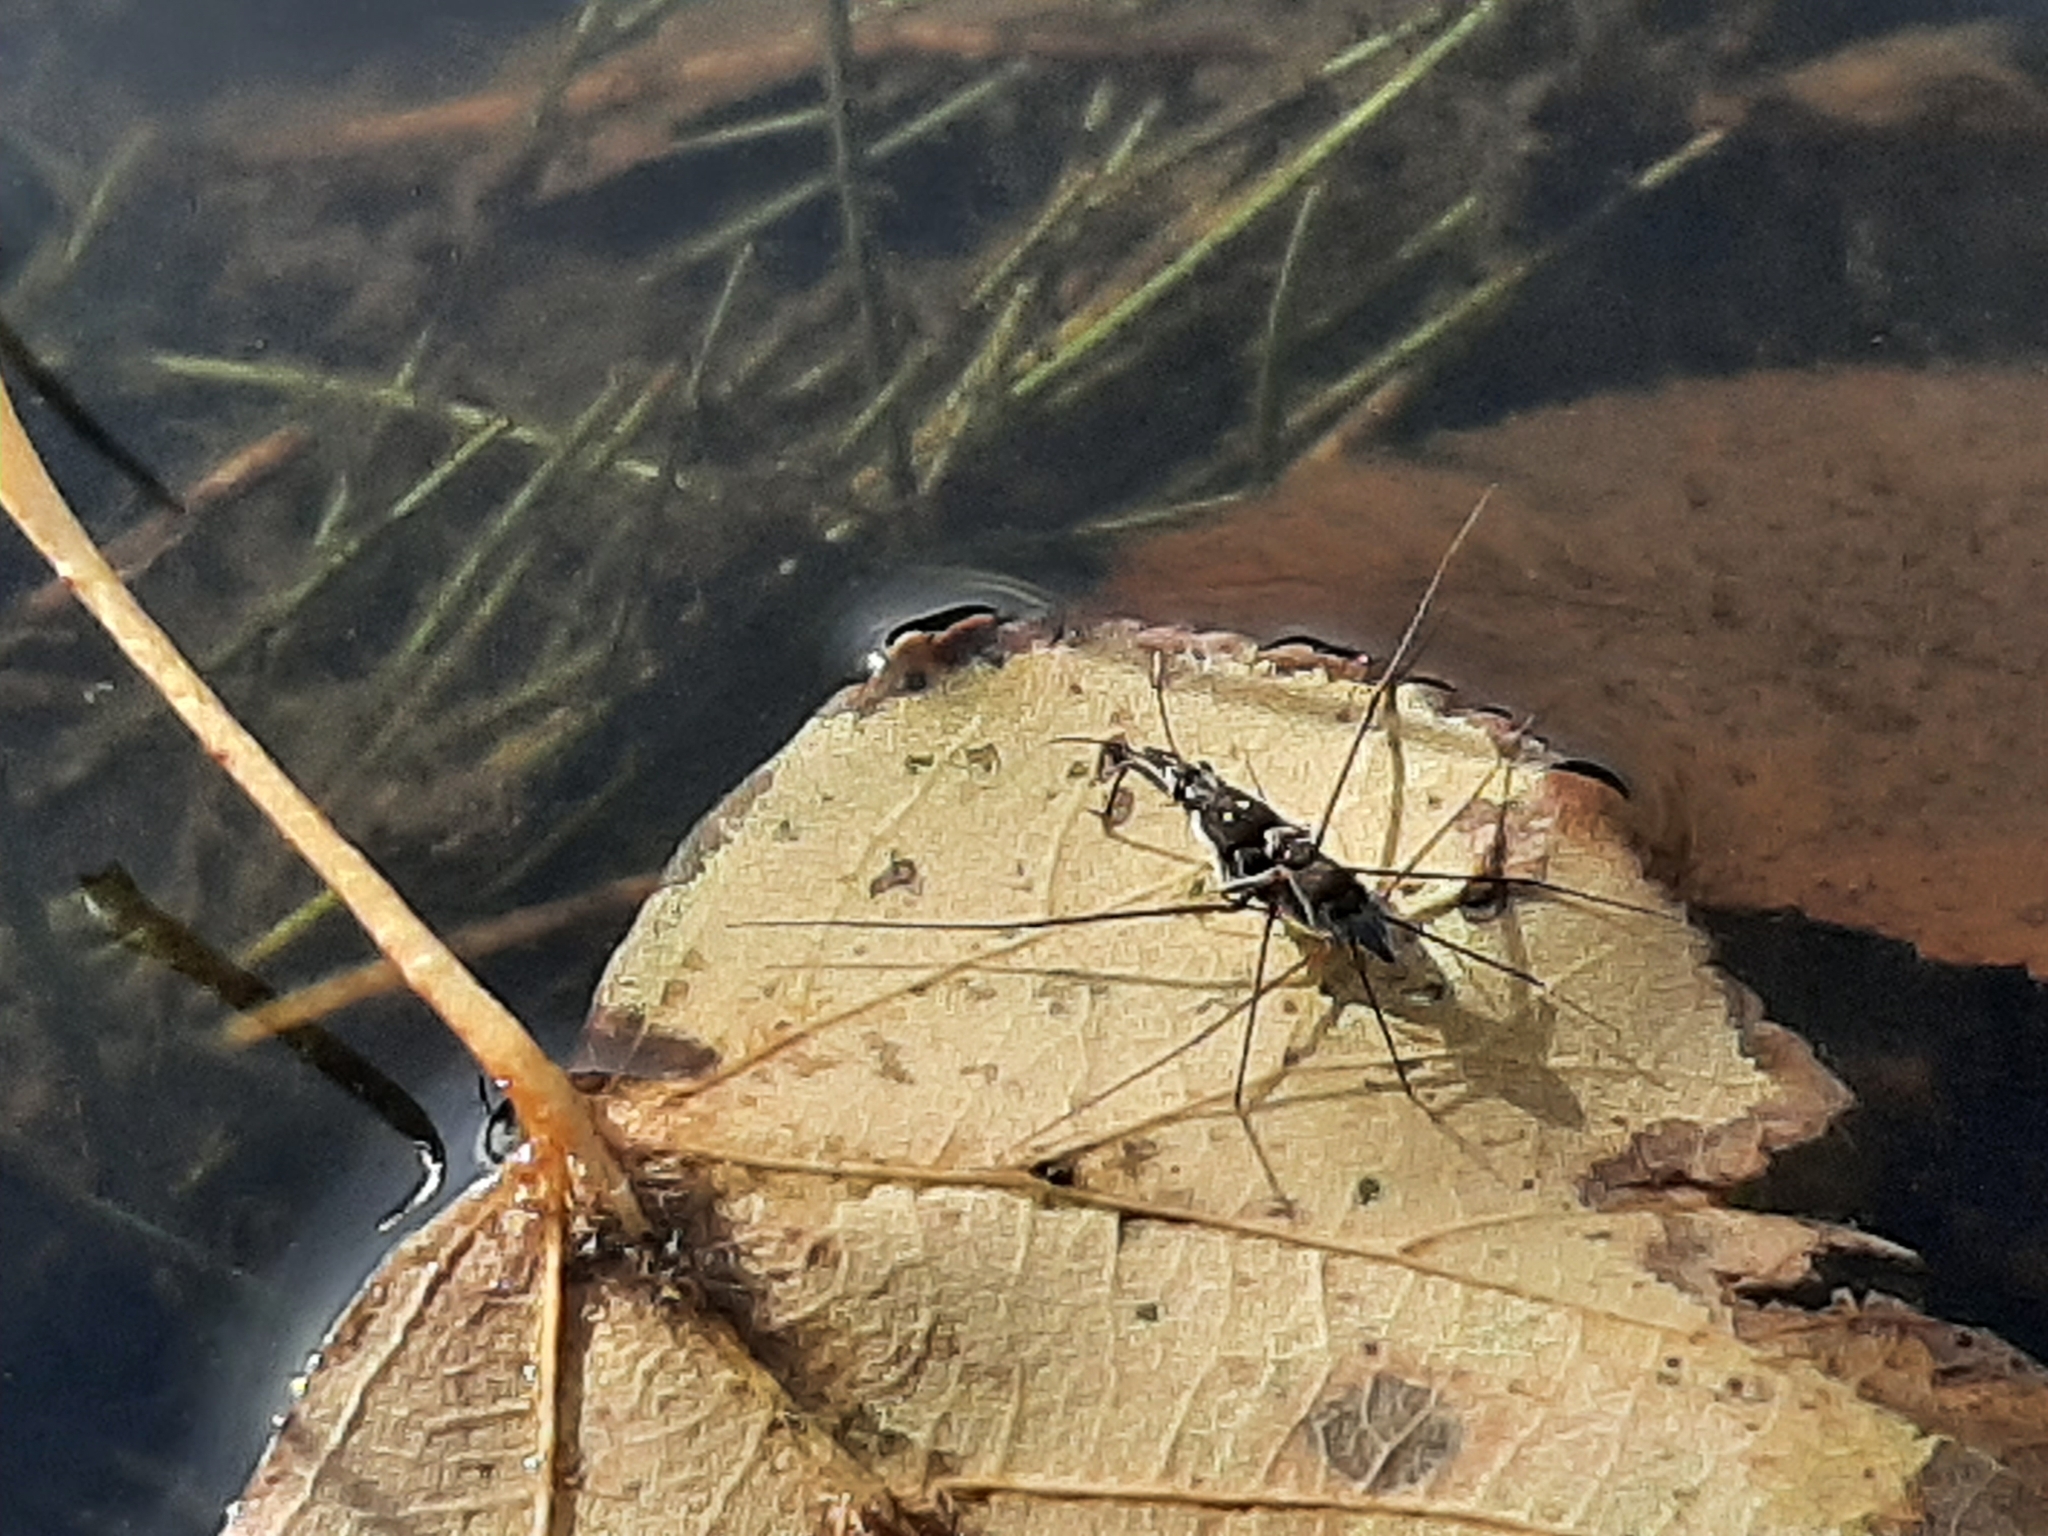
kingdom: Animalia
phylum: Arthropoda
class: Insecta
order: Hemiptera
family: Gerridae
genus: Neogerris
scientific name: Neogerris hesione
